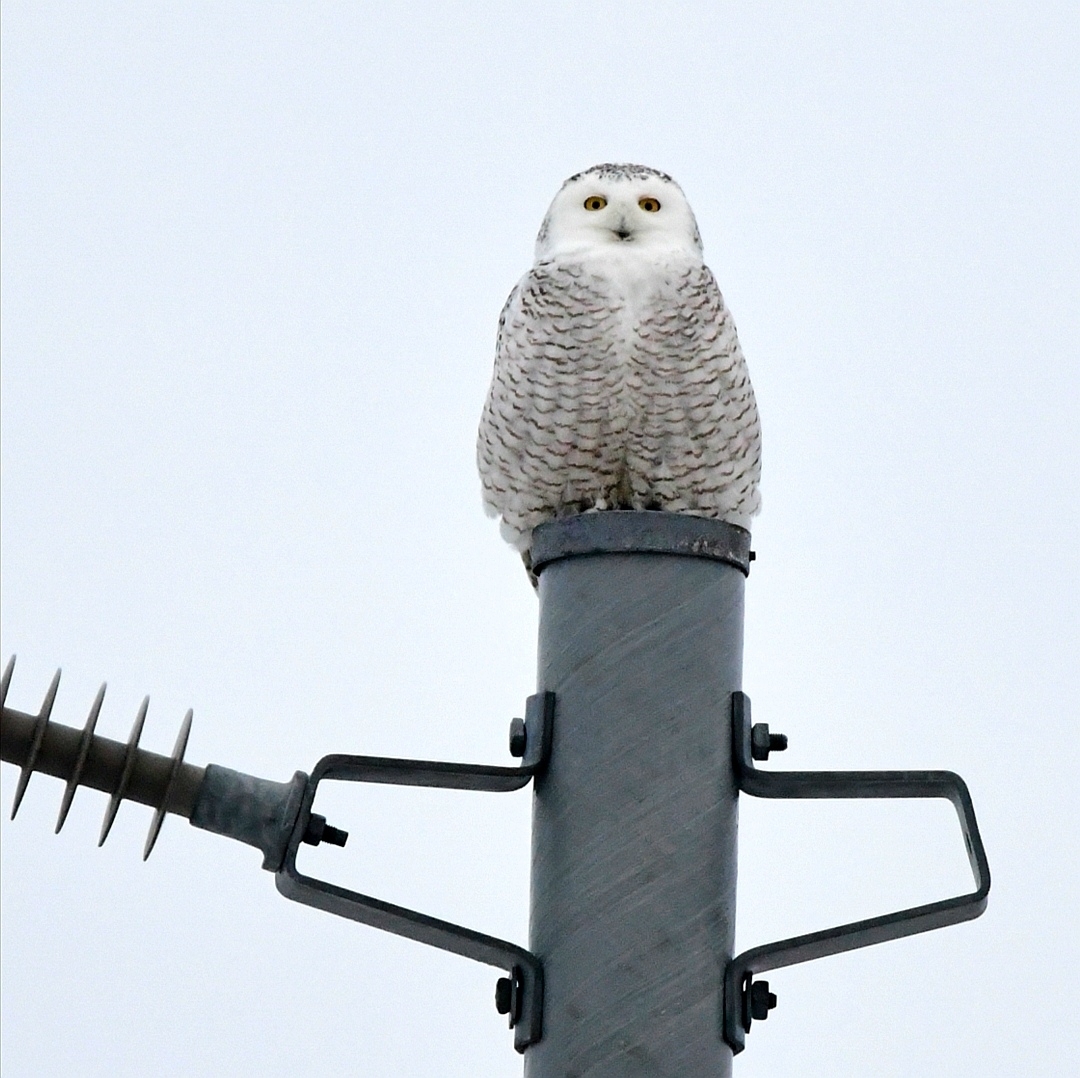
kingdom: Animalia
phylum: Chordata
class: Aves
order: Strigiformes
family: Strigidae
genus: Bubo
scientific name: Bubo scandiacus
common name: Snowy owl
